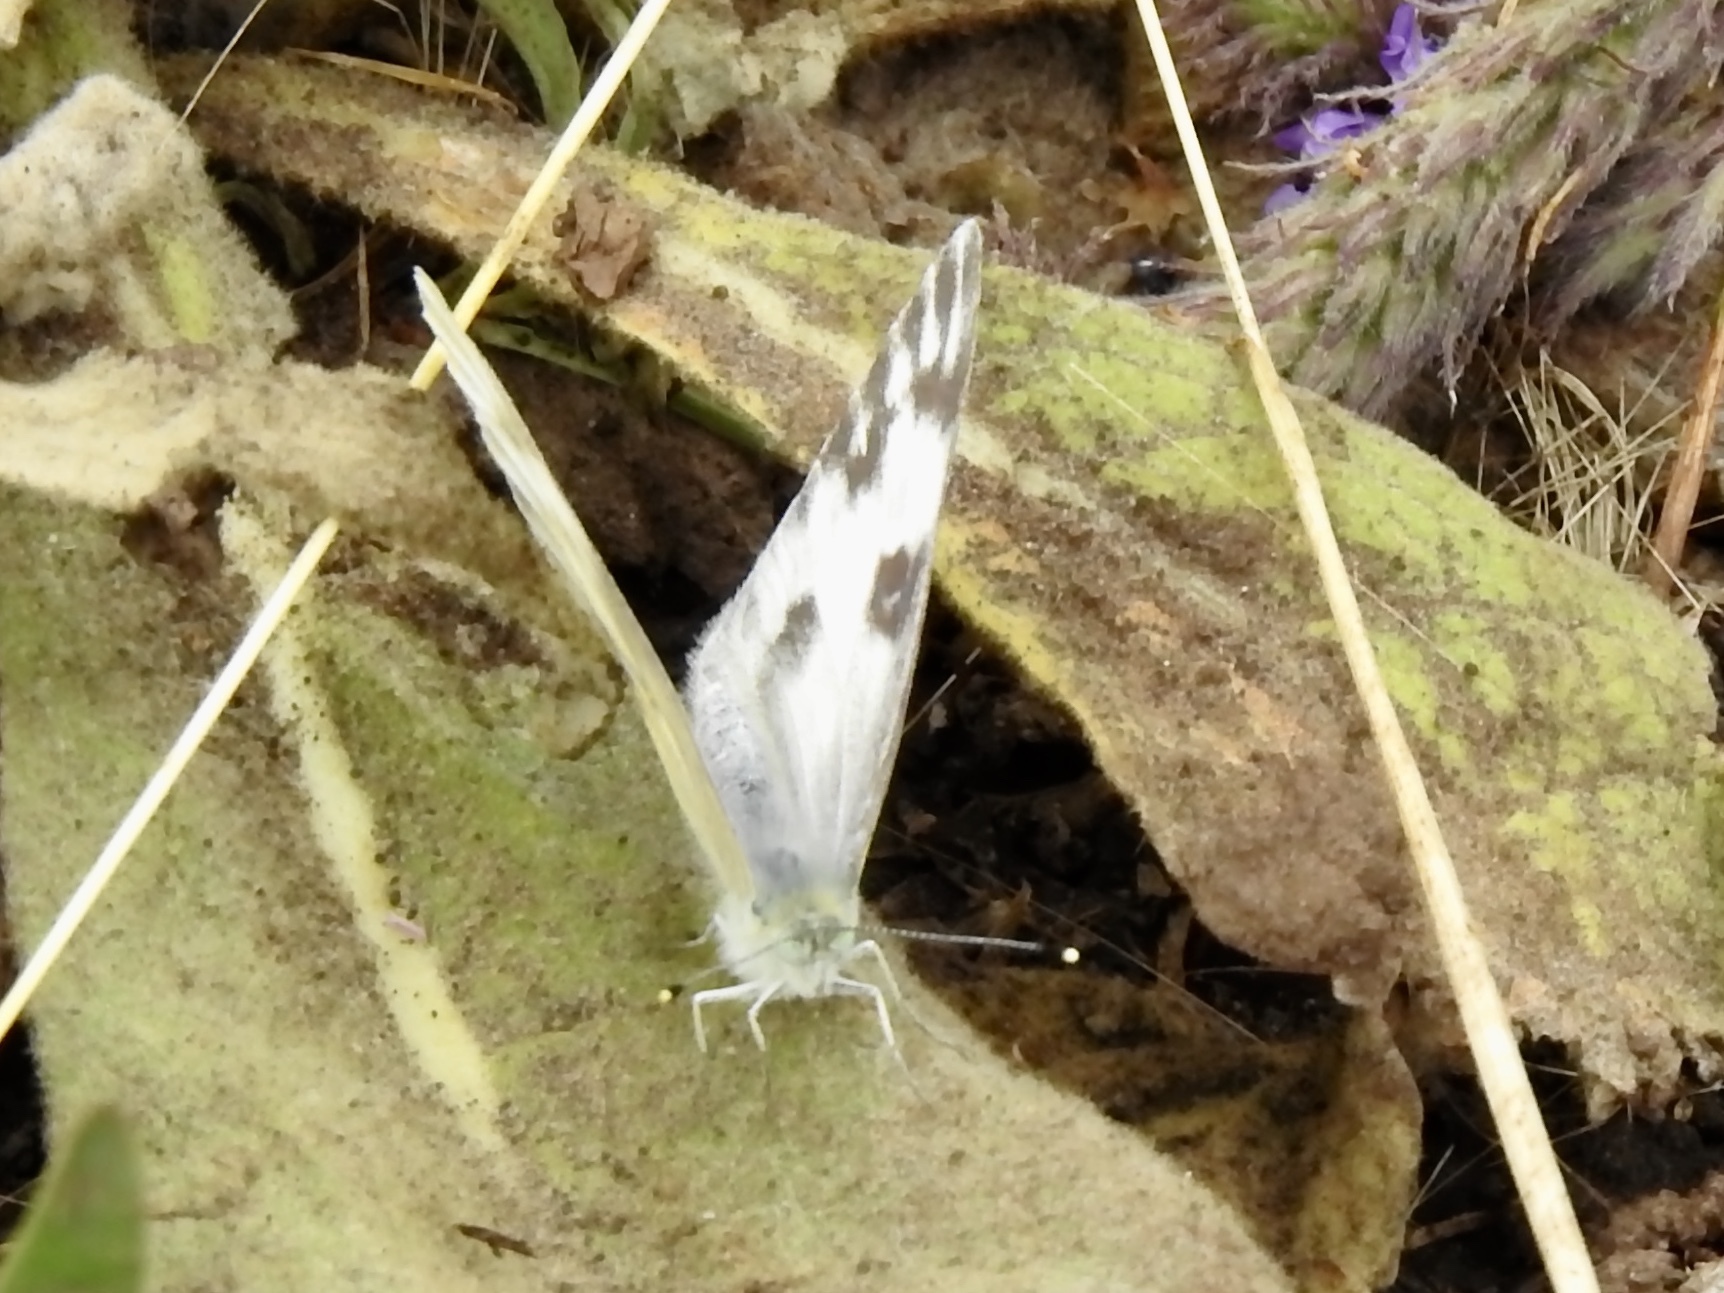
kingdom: Animalia
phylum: Arthropoda
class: Insecta
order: Lepidoptera
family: Pieridae
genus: Pontia
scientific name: Pontia protodice
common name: Checkered white
